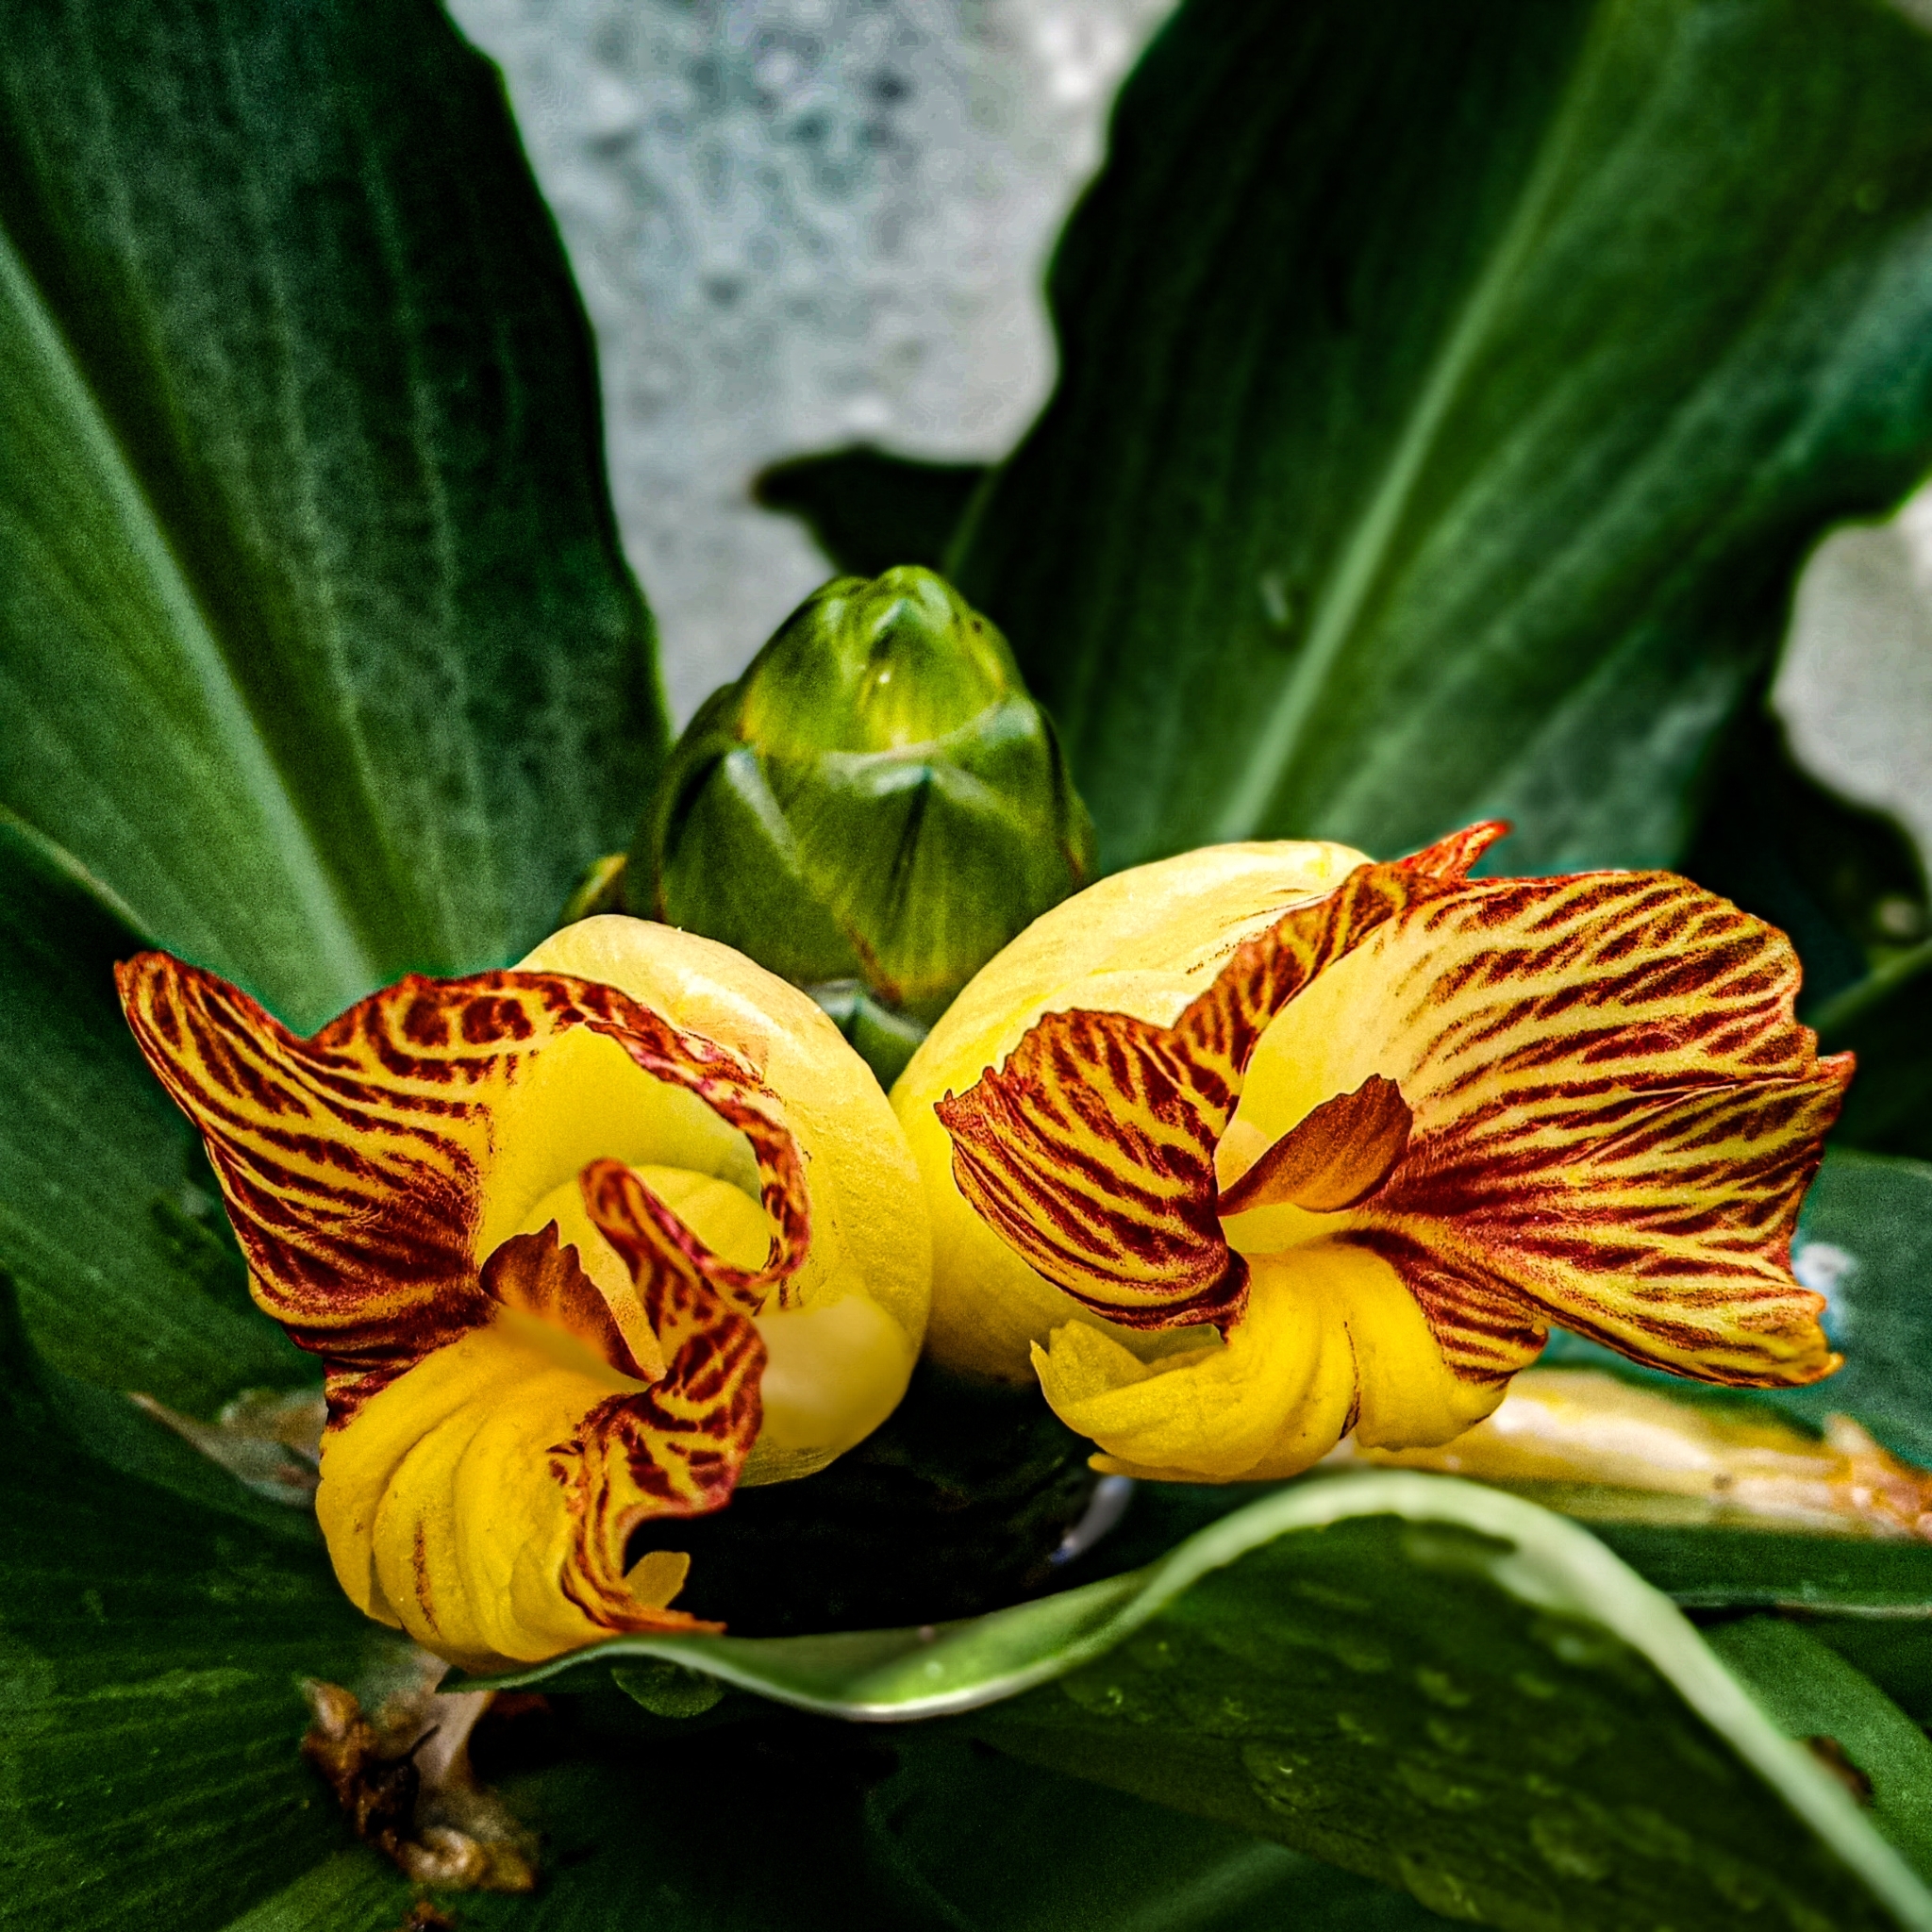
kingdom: Plantae
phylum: Tracheophyta
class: Liliopsida
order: Zingiberales
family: Costaceae
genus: Costus
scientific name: Costus pictus
